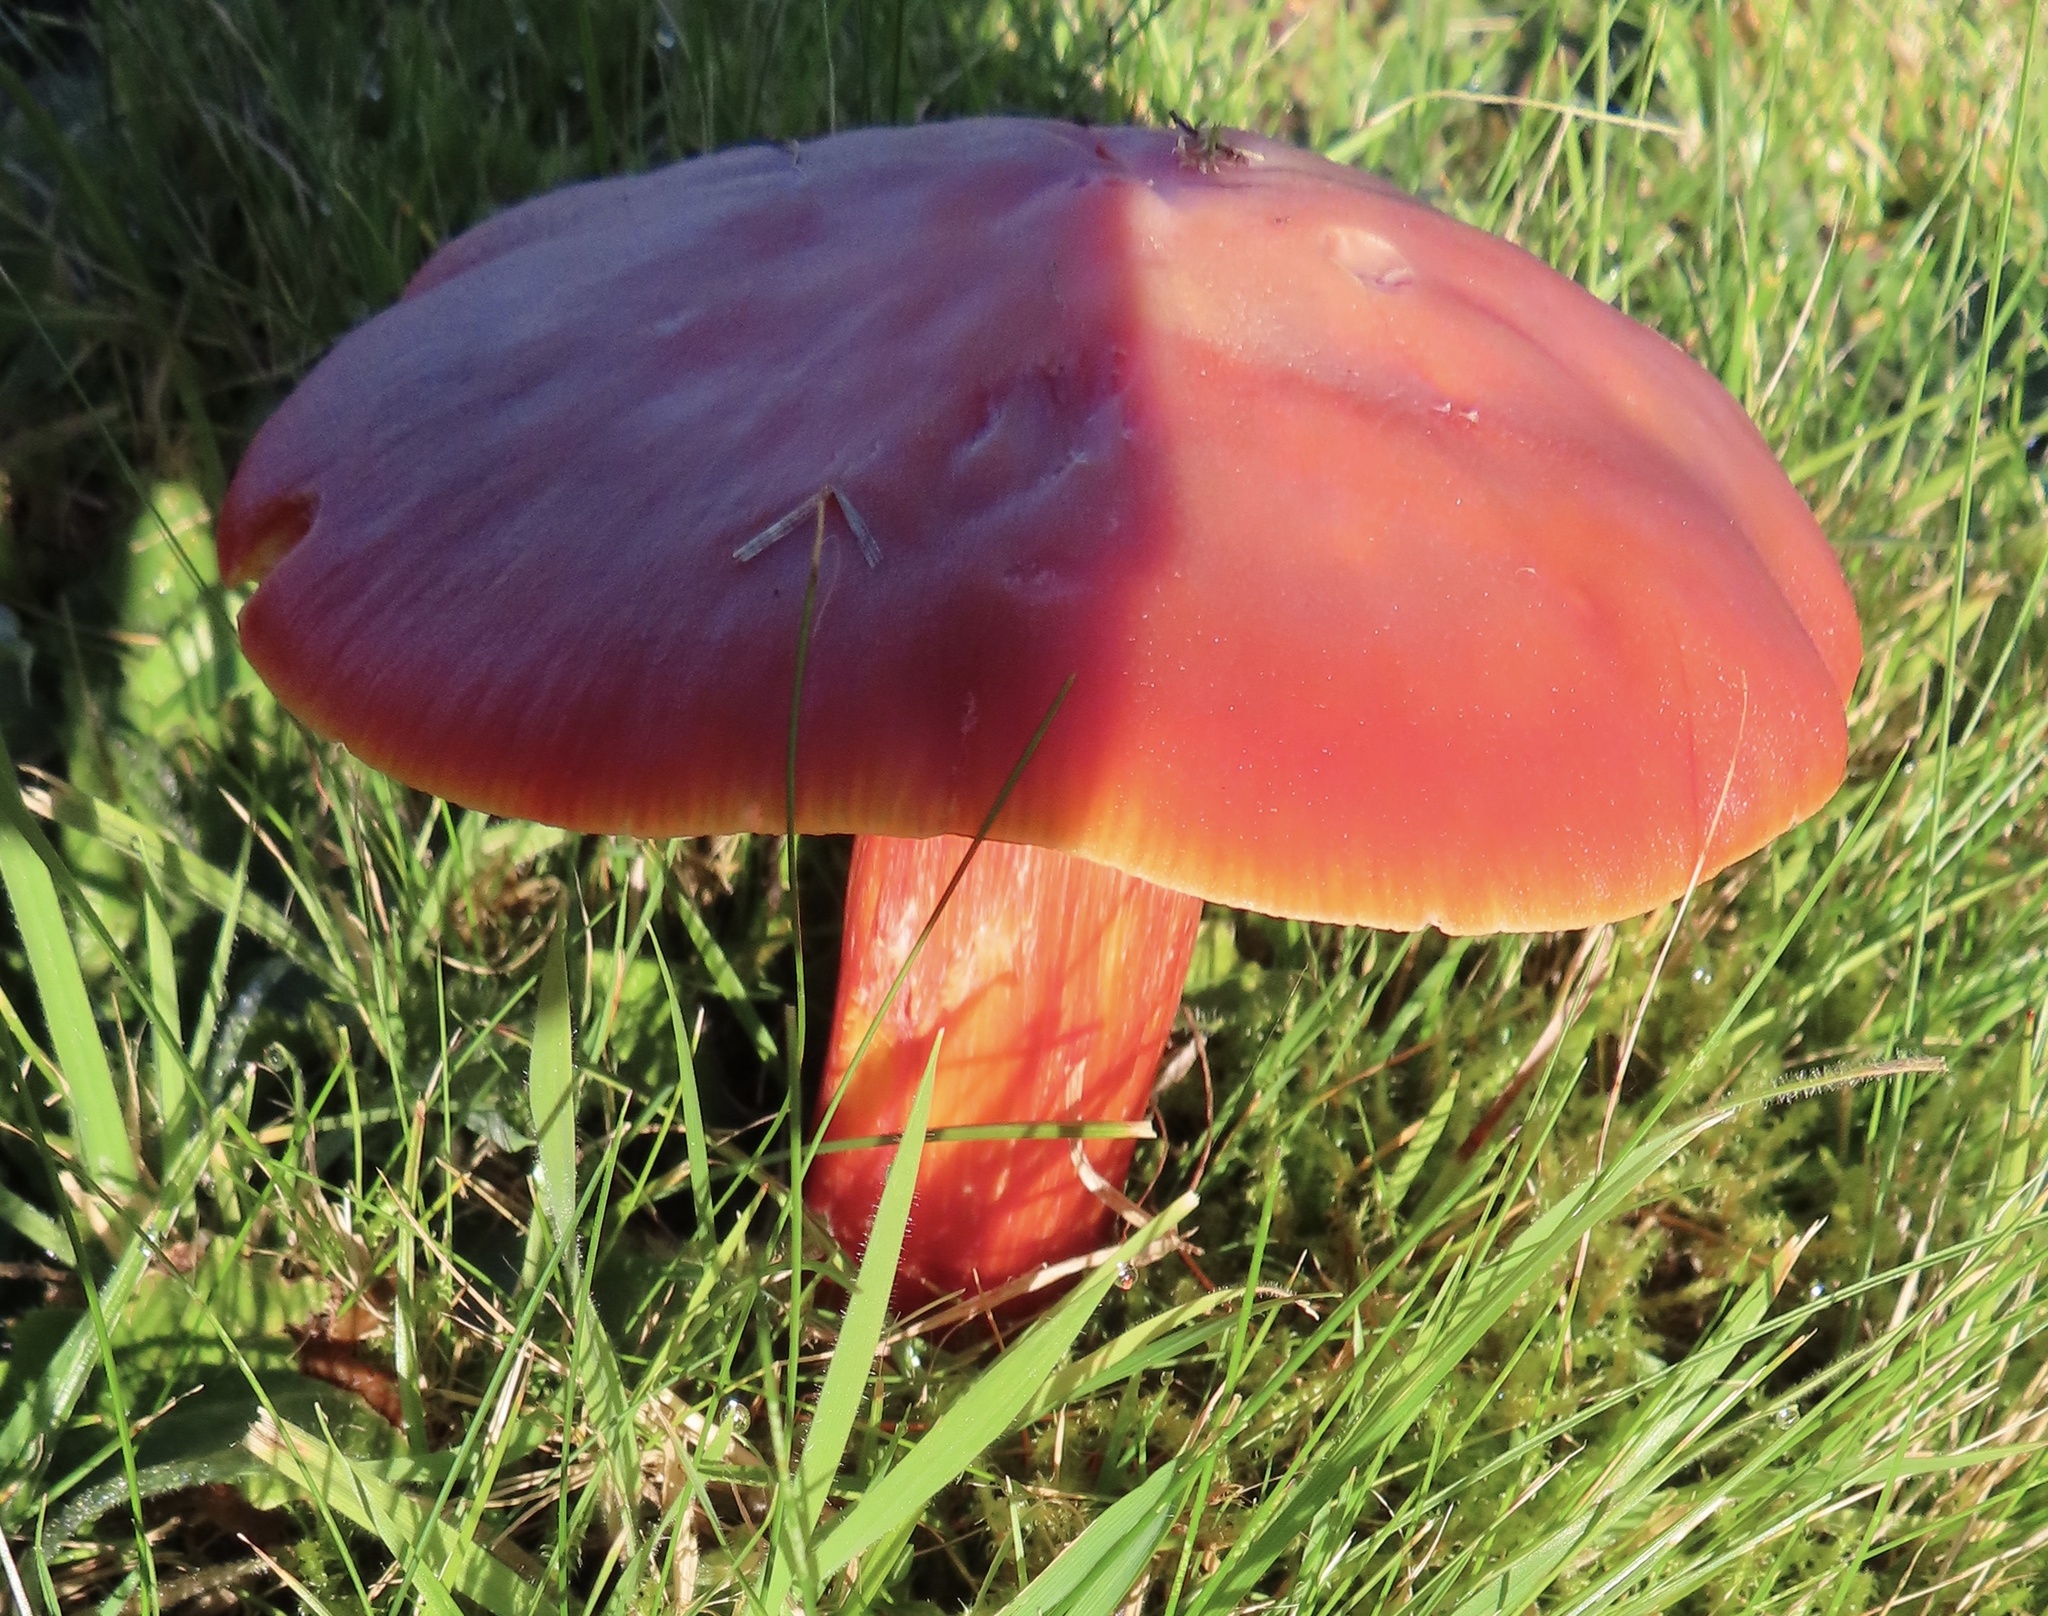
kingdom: Fungi
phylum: Basidiomycota
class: Agaricomycetes
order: Agaricales
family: Hygrophoraceae
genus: Hygrocybe
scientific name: Hygrocybe punicea
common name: Crimson waxcap
